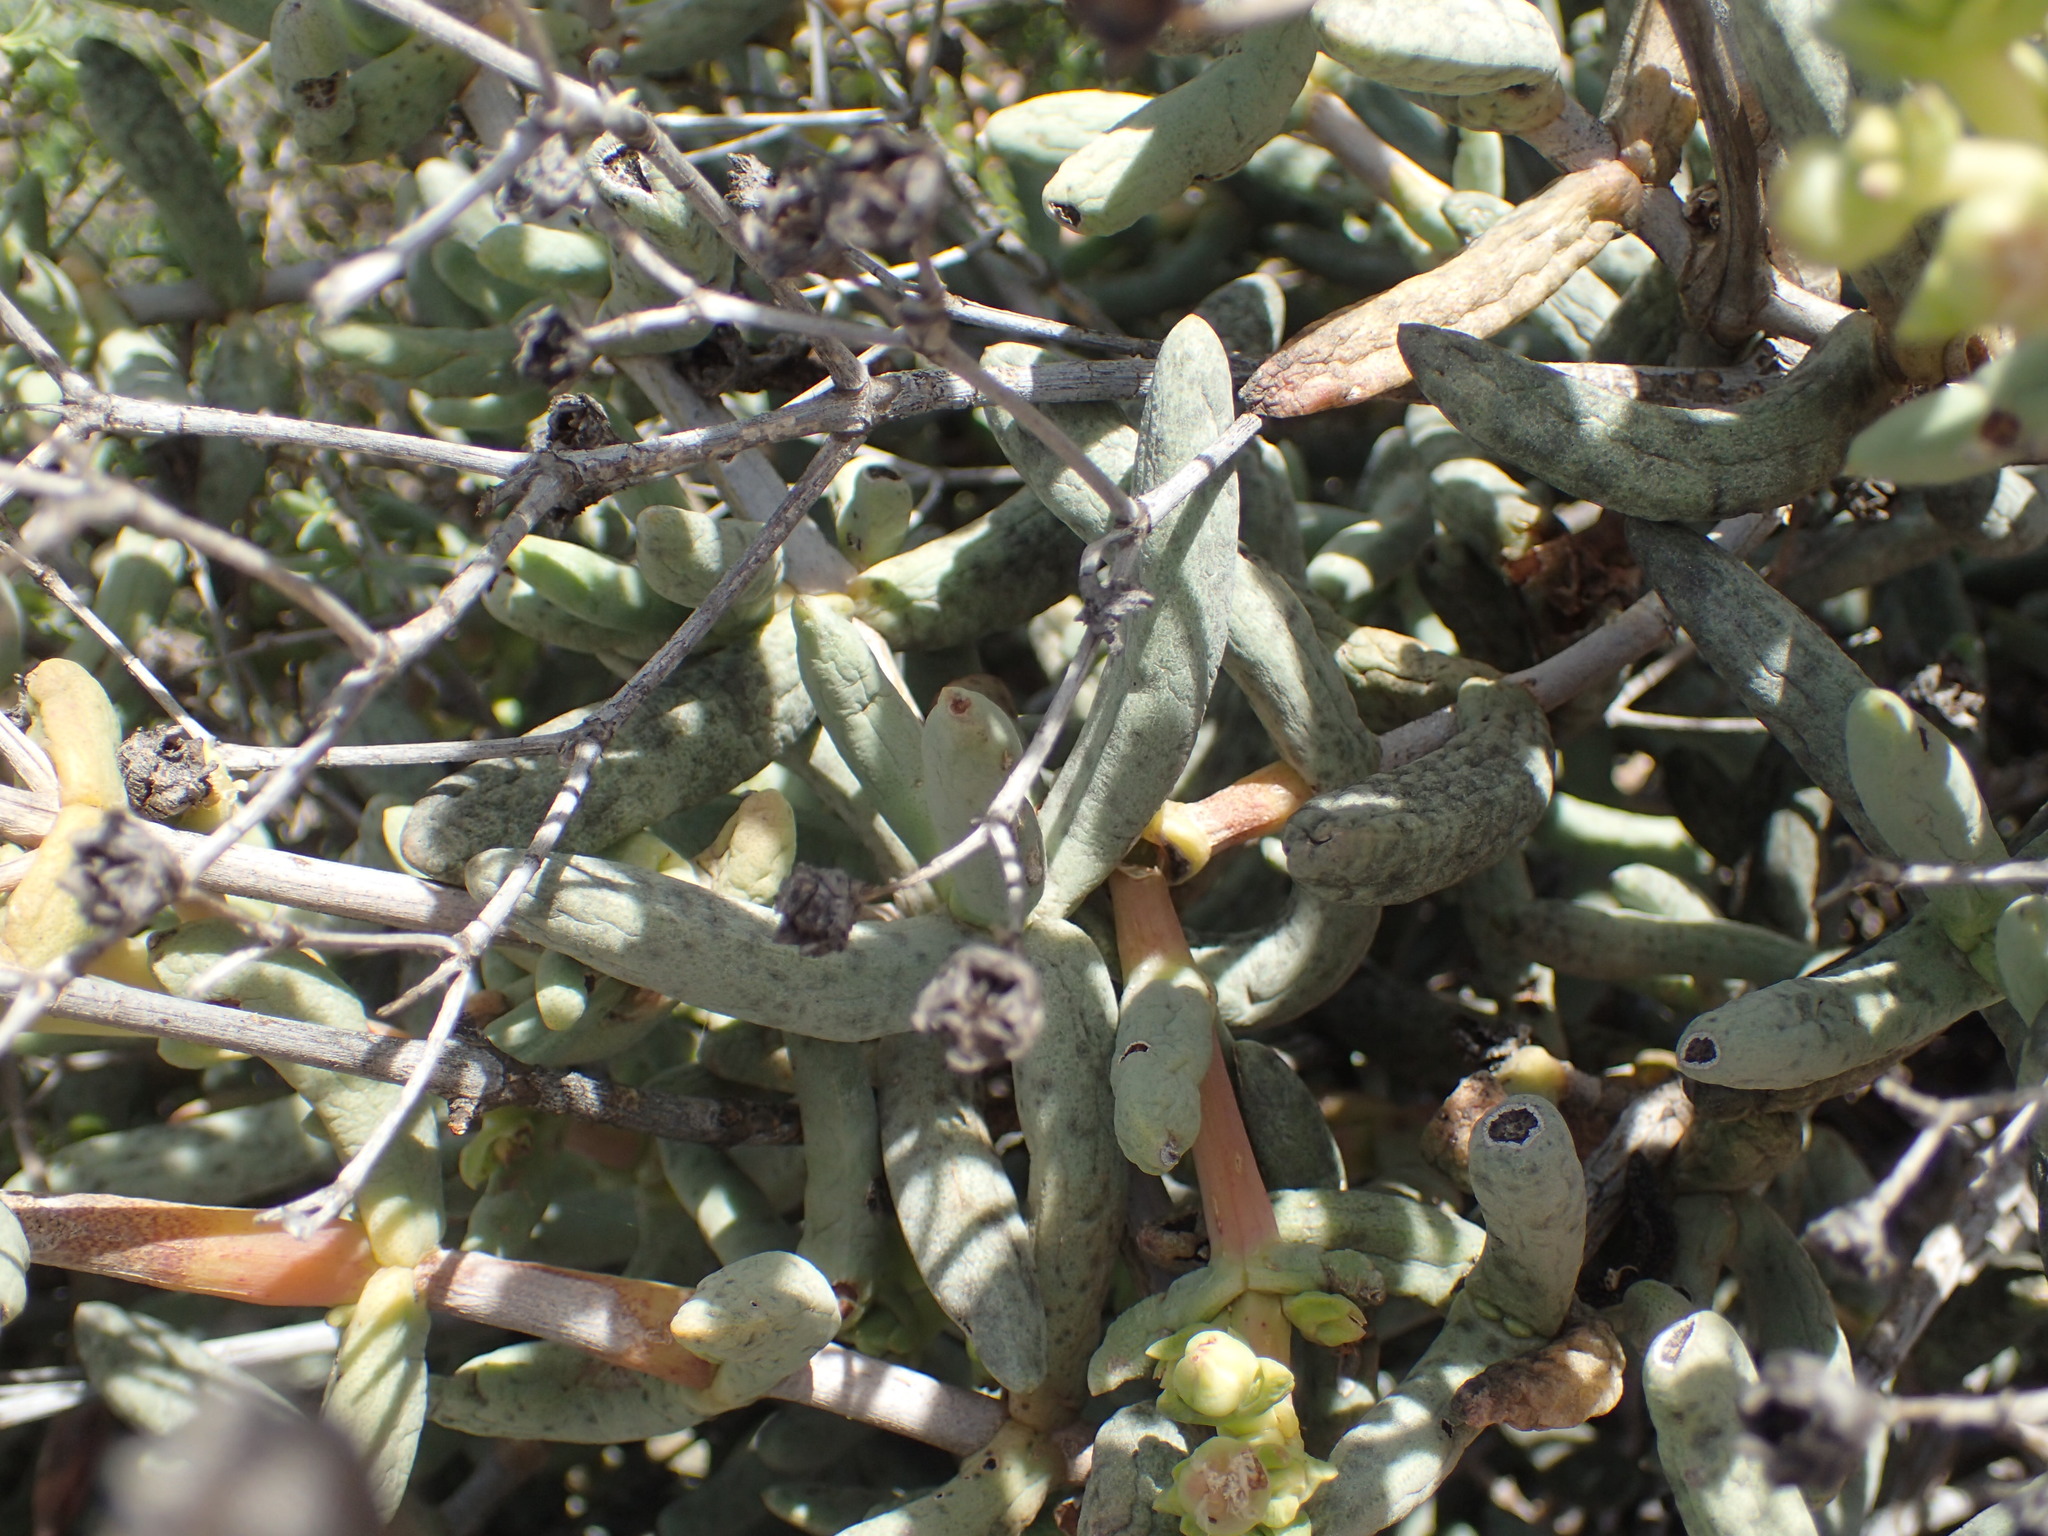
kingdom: Plantae
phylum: Tracheophyta
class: Magnoliopsida
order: Caryophyllales
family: Aizoaceae
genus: Stoeberia
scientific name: Stoeberia frutescens
